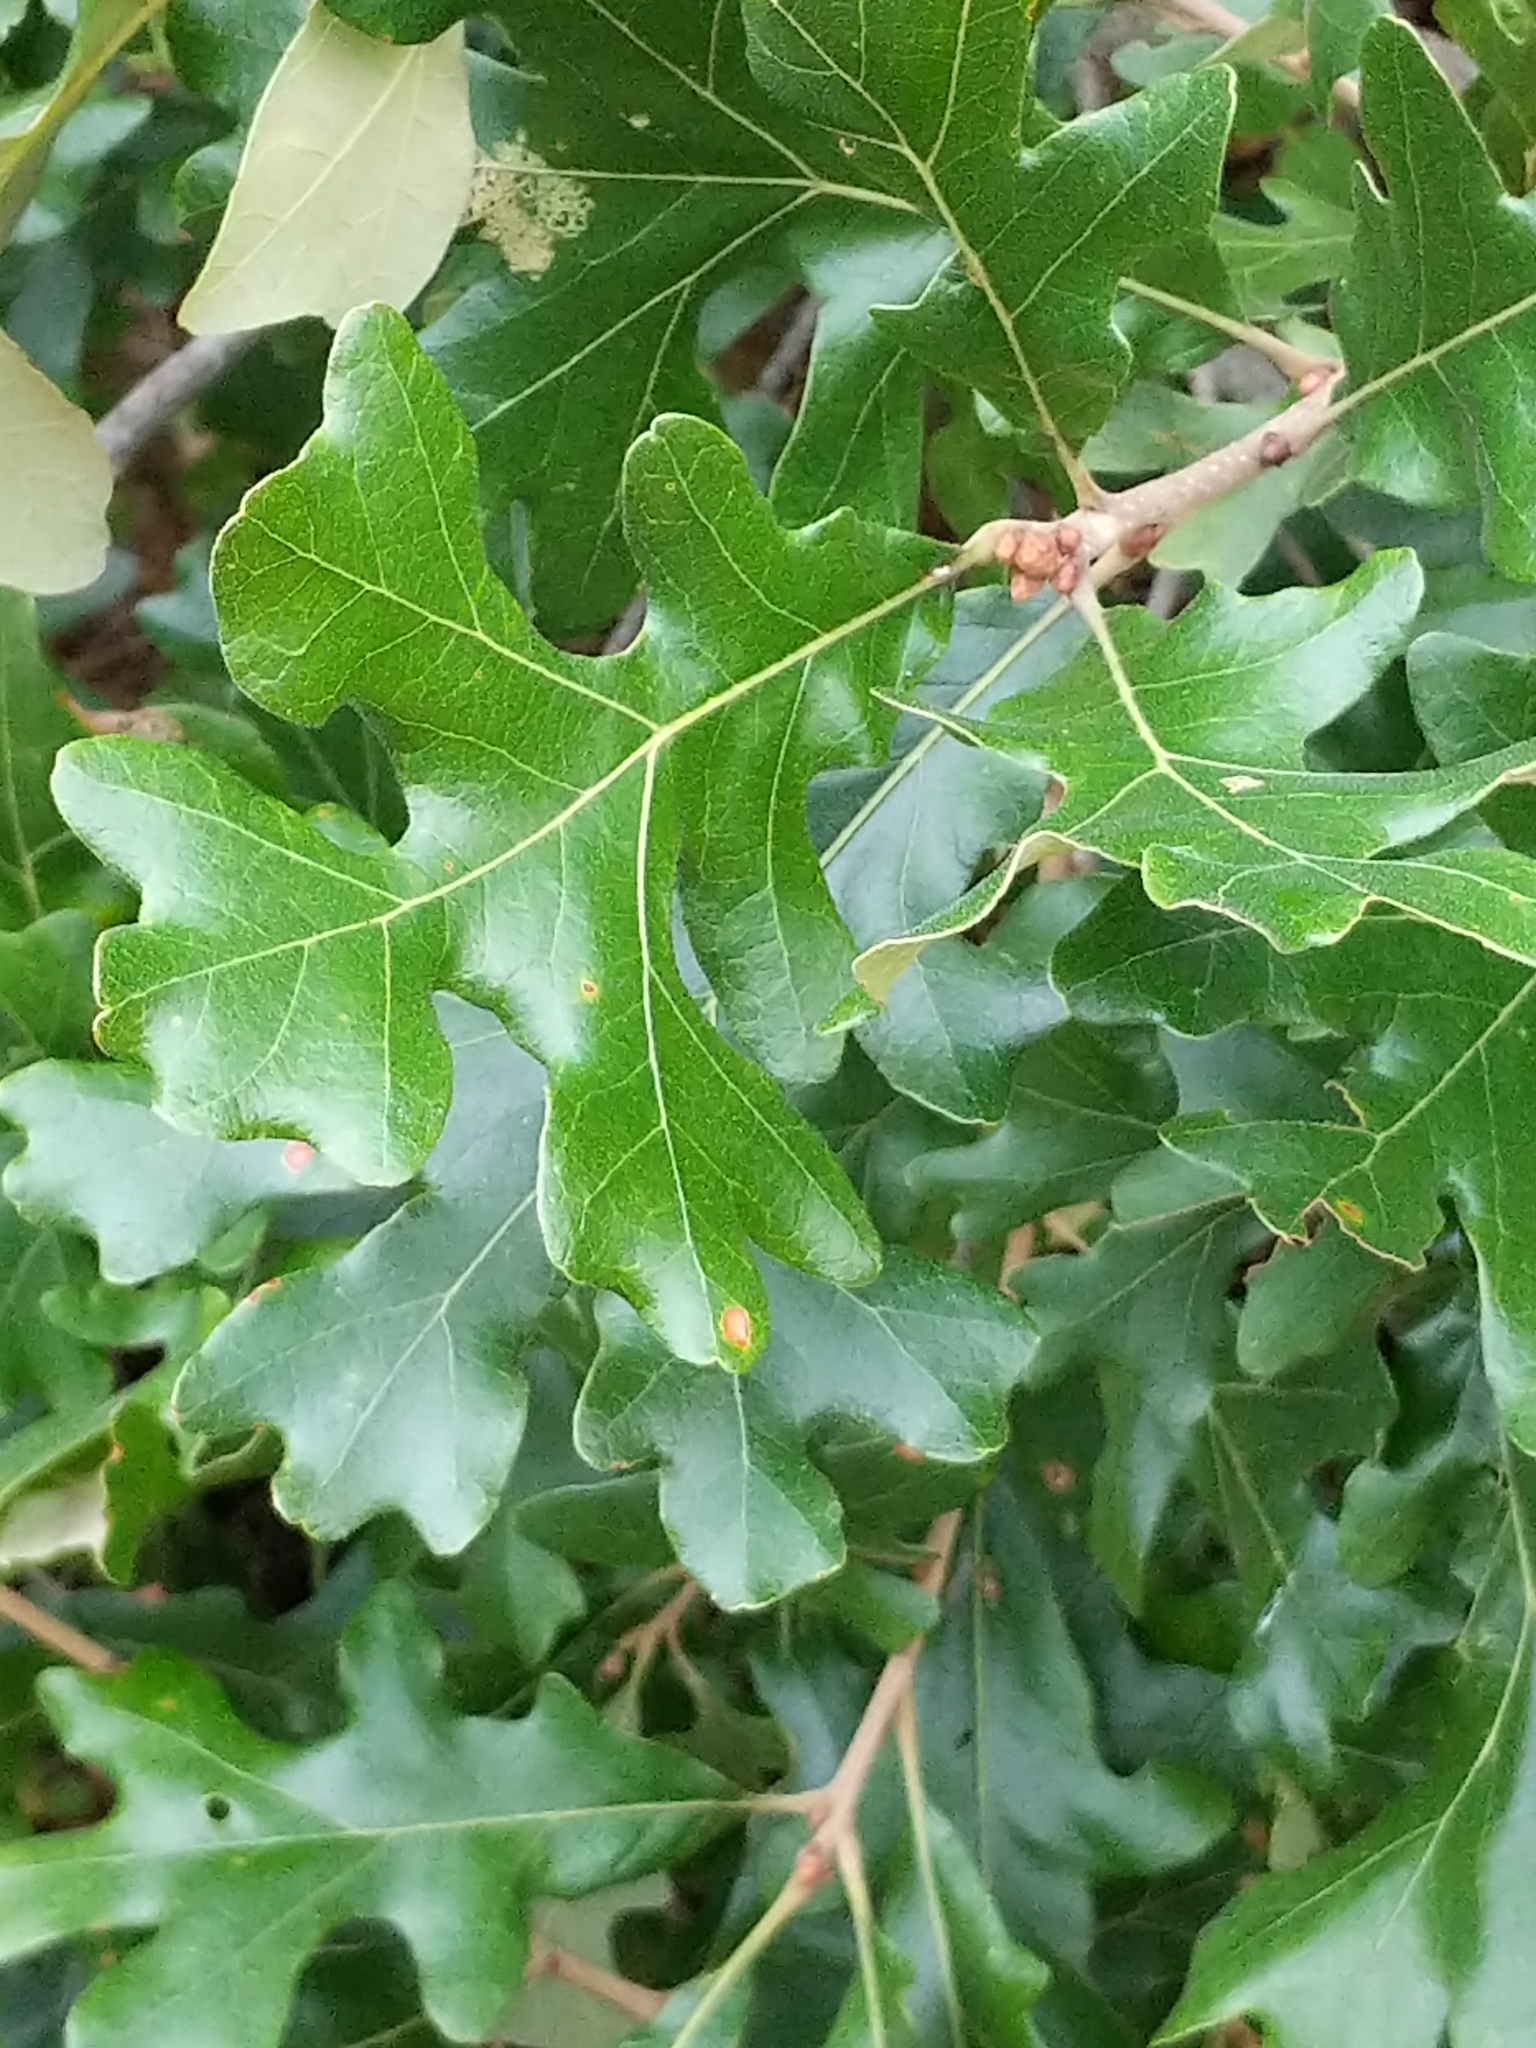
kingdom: Plantae
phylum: Tracheophyta
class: Magnoliopsida
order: Fagales
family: Fagaceae
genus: Quercus
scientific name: Quercus stellata
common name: Post oak
